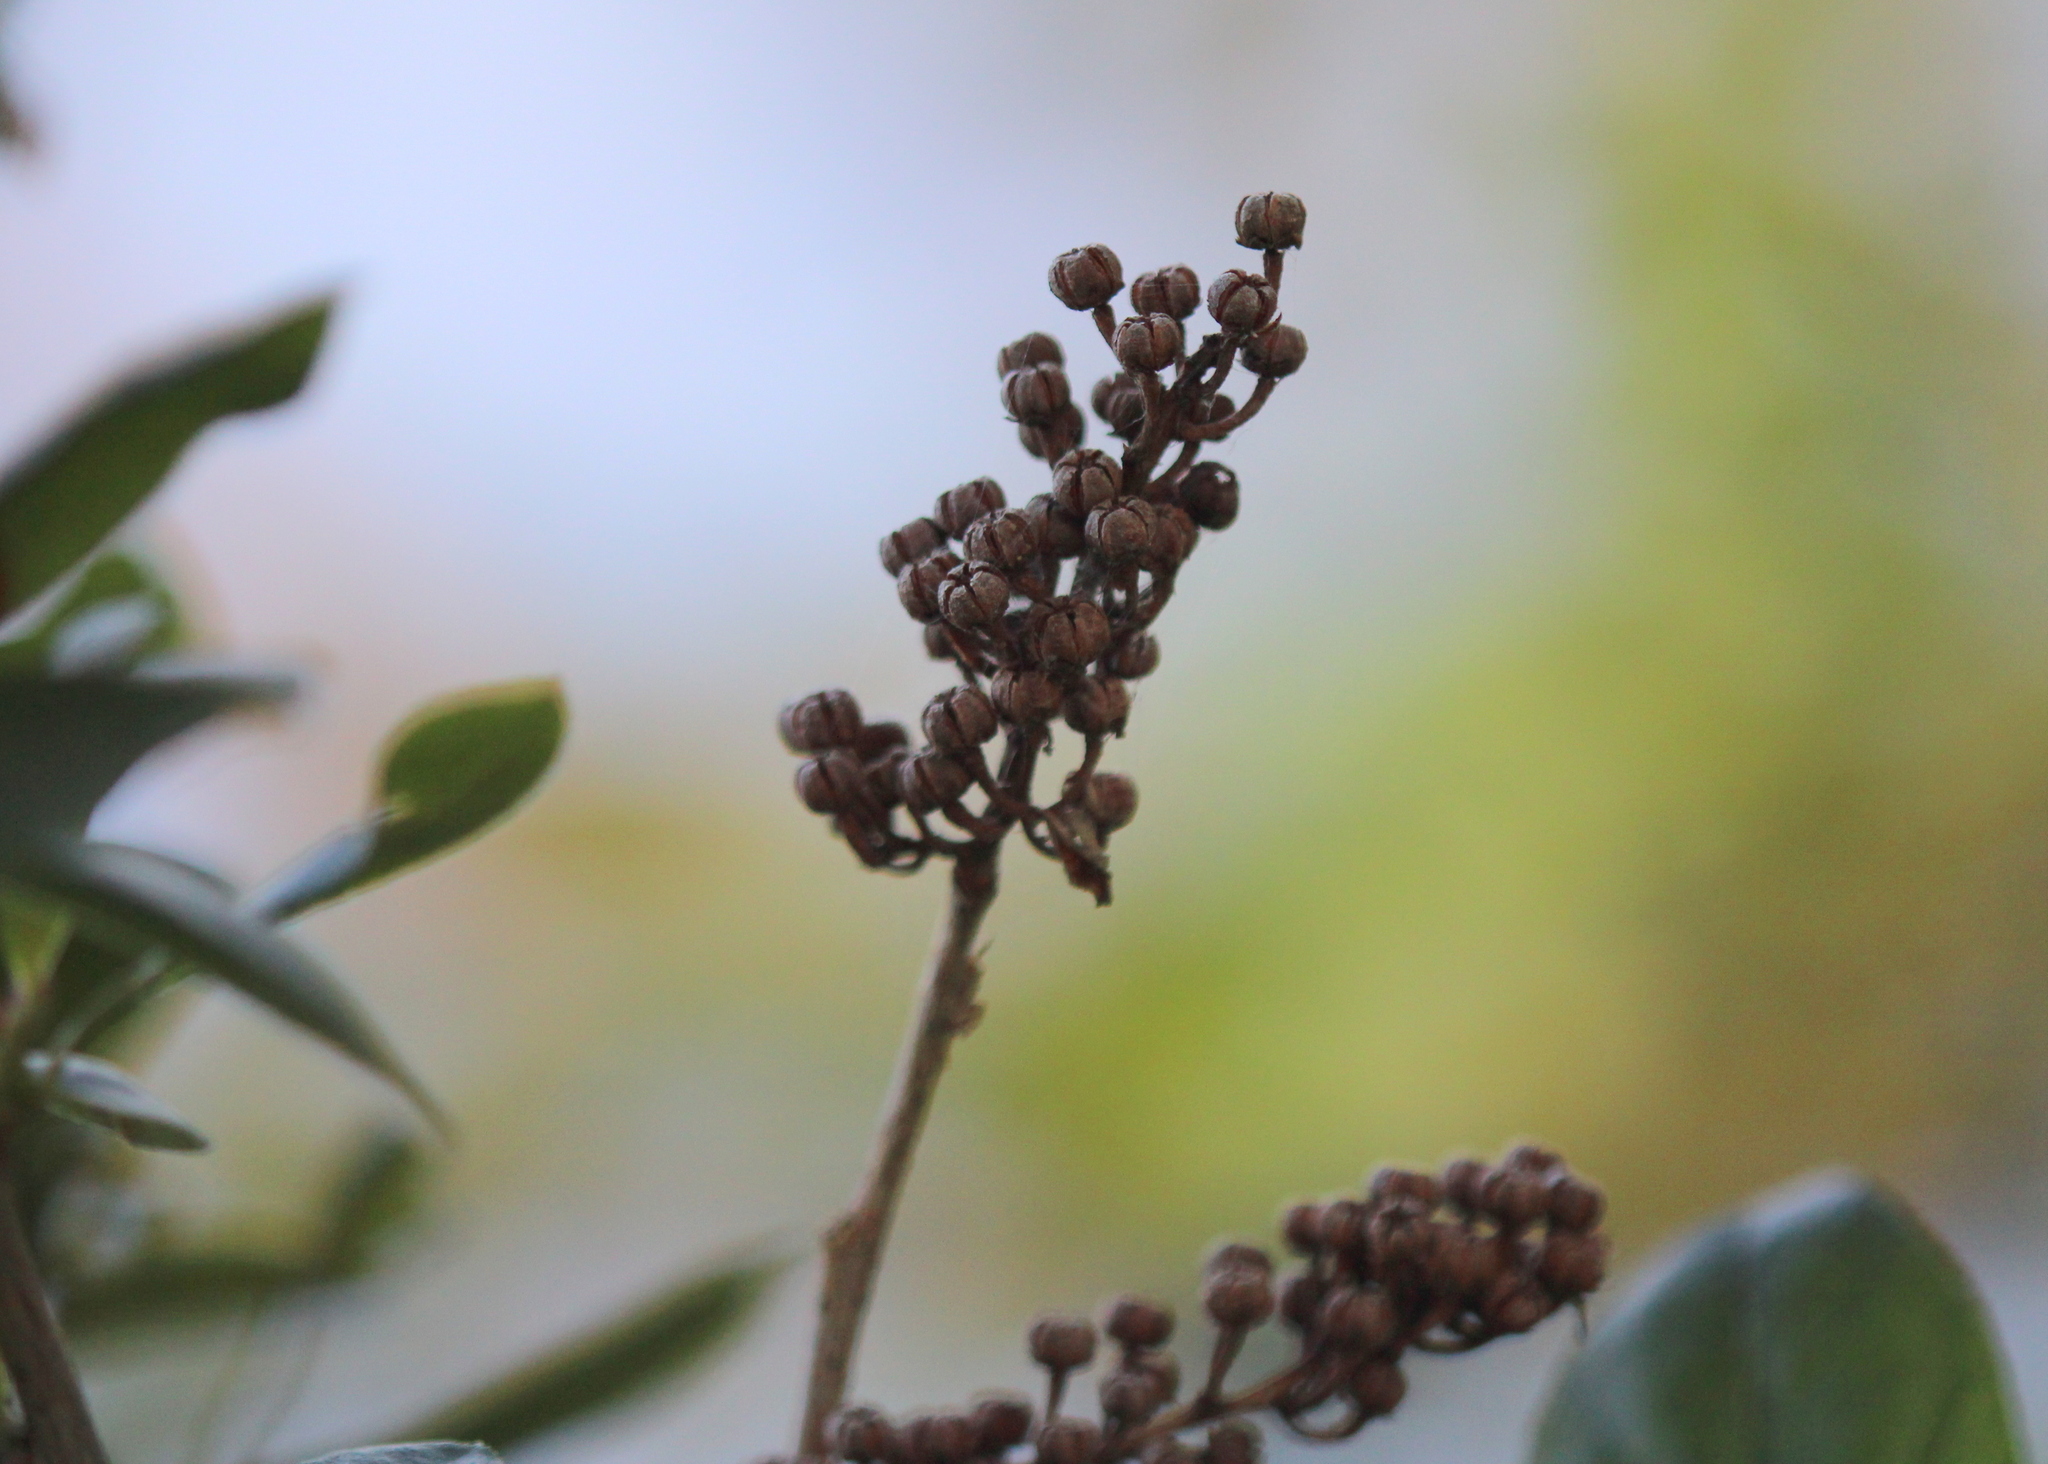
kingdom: Plantae
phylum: Tracheophyta
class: Magnoliopsida
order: Ericales
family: Ericaceae
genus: Lyonia
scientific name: Lyonia ligustrina
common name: Maleberry
